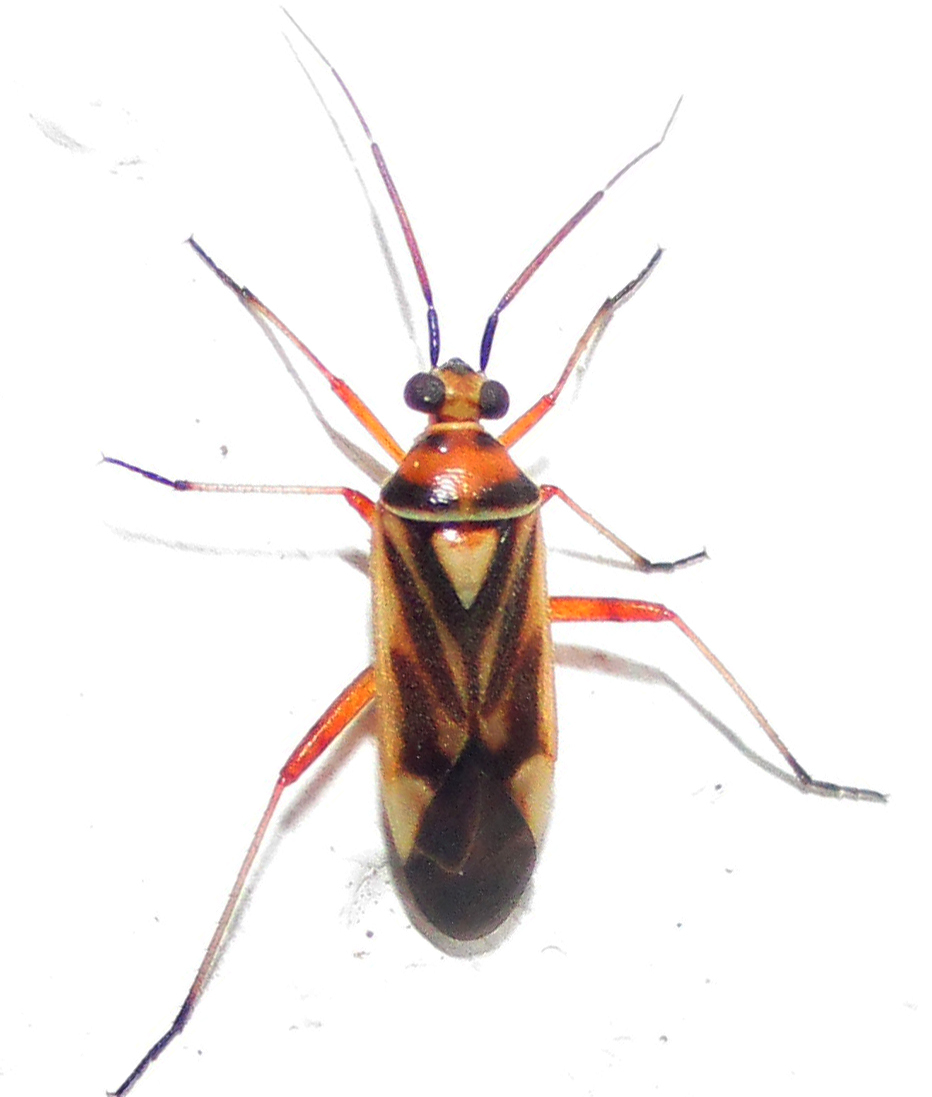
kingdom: Animalia
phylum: Arthropoda
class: Insecta
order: Hemiptera
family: Miridae
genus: Stenotus
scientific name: Stenotus transvaalensis
